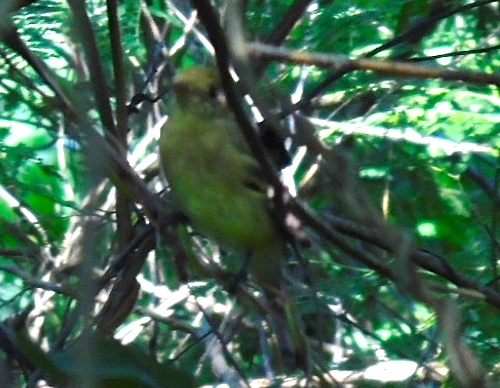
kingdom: Animalia
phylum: Chordata
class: Aves
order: Passeriformes
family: Cardinalidae
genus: Piranga
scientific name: Piranga
